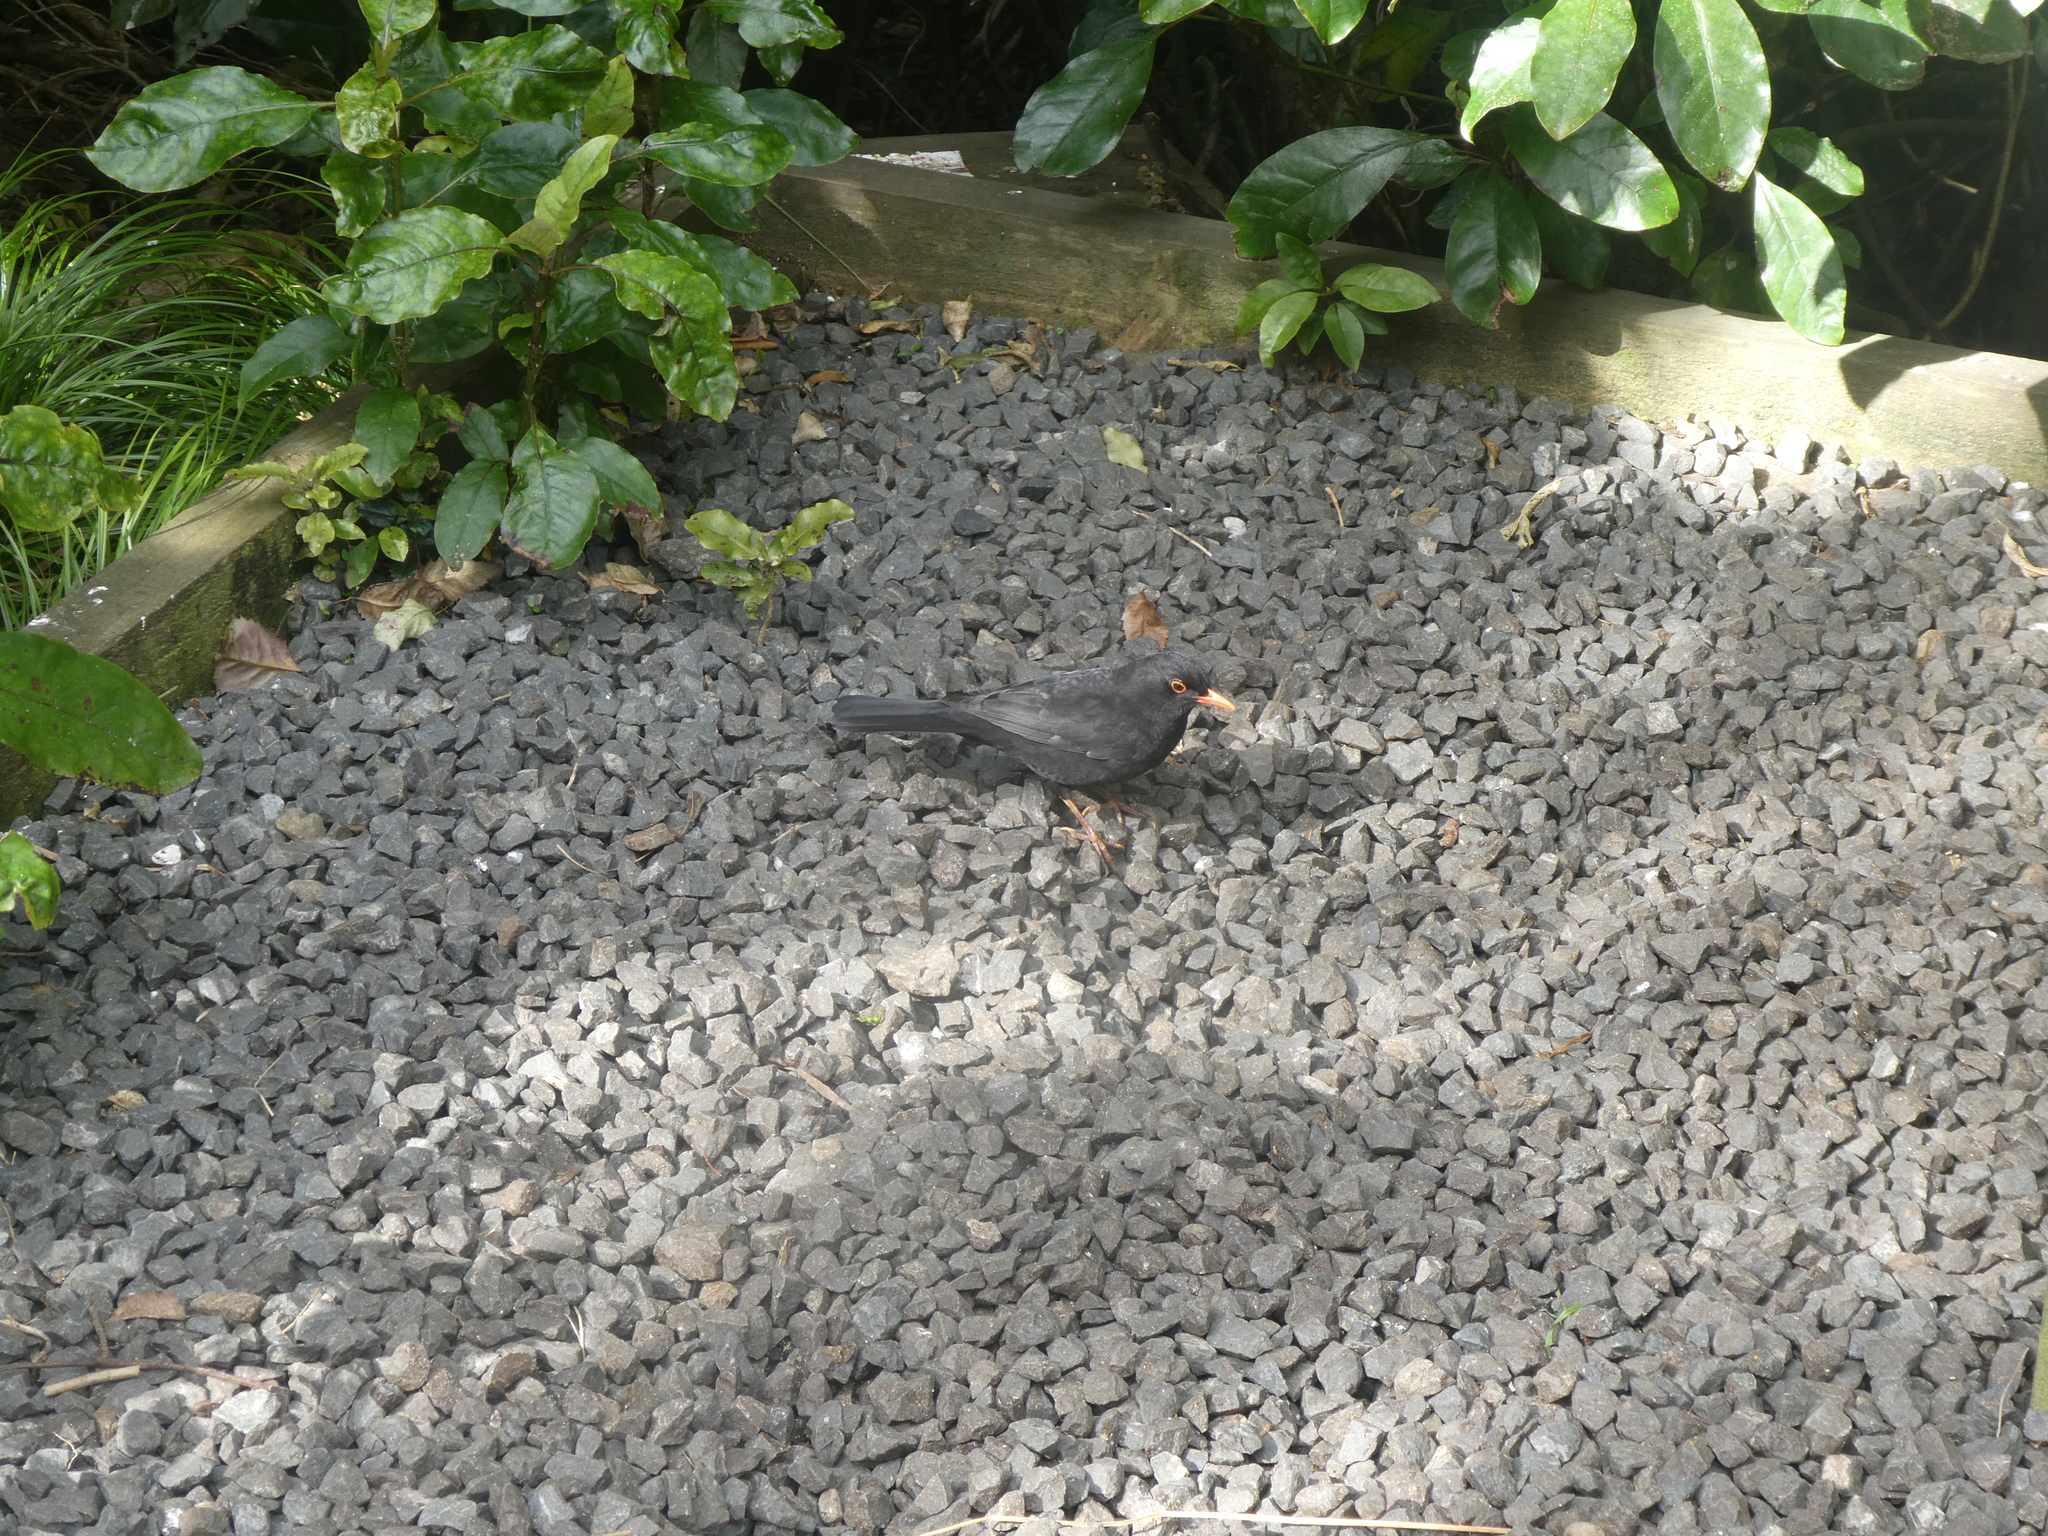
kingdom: Animalia
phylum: Chordata
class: Aves
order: Passeriformes
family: Turdidae
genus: Turdus
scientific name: Turdus merula
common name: Common blackbird
